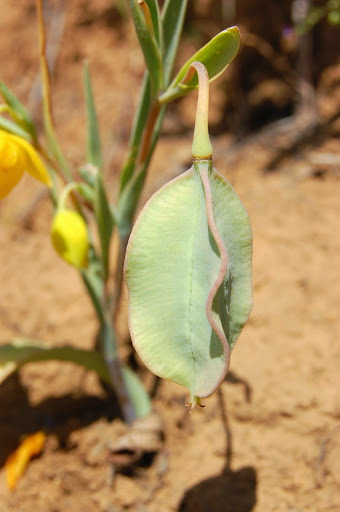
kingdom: Plantae
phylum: Tracheophyta
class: Liliopsida
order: Liliales
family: Liliaceae
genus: Calochortus
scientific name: Calochortus amabilis
